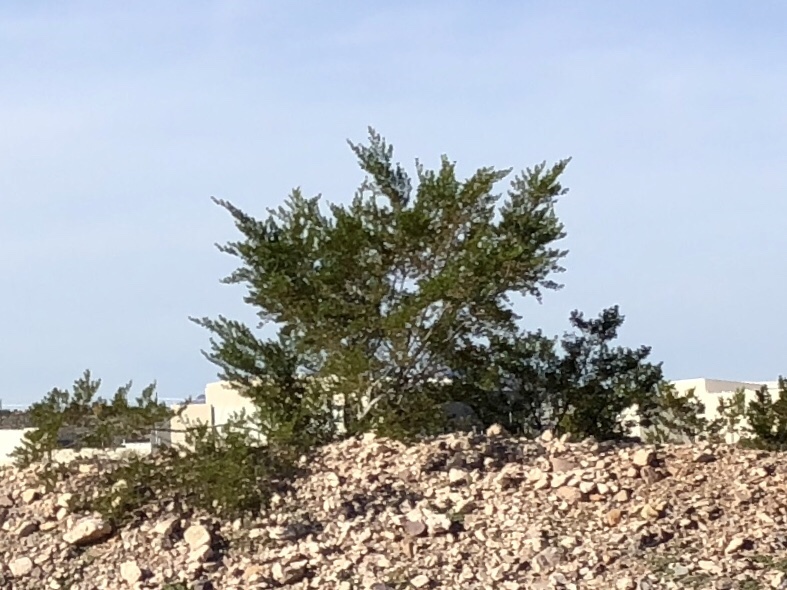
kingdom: Plantae
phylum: Tracheophyta
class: Magnoliopsida
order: Zygophyllales
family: Zygophyllaceae
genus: Larrea
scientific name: Larrea tridentata
